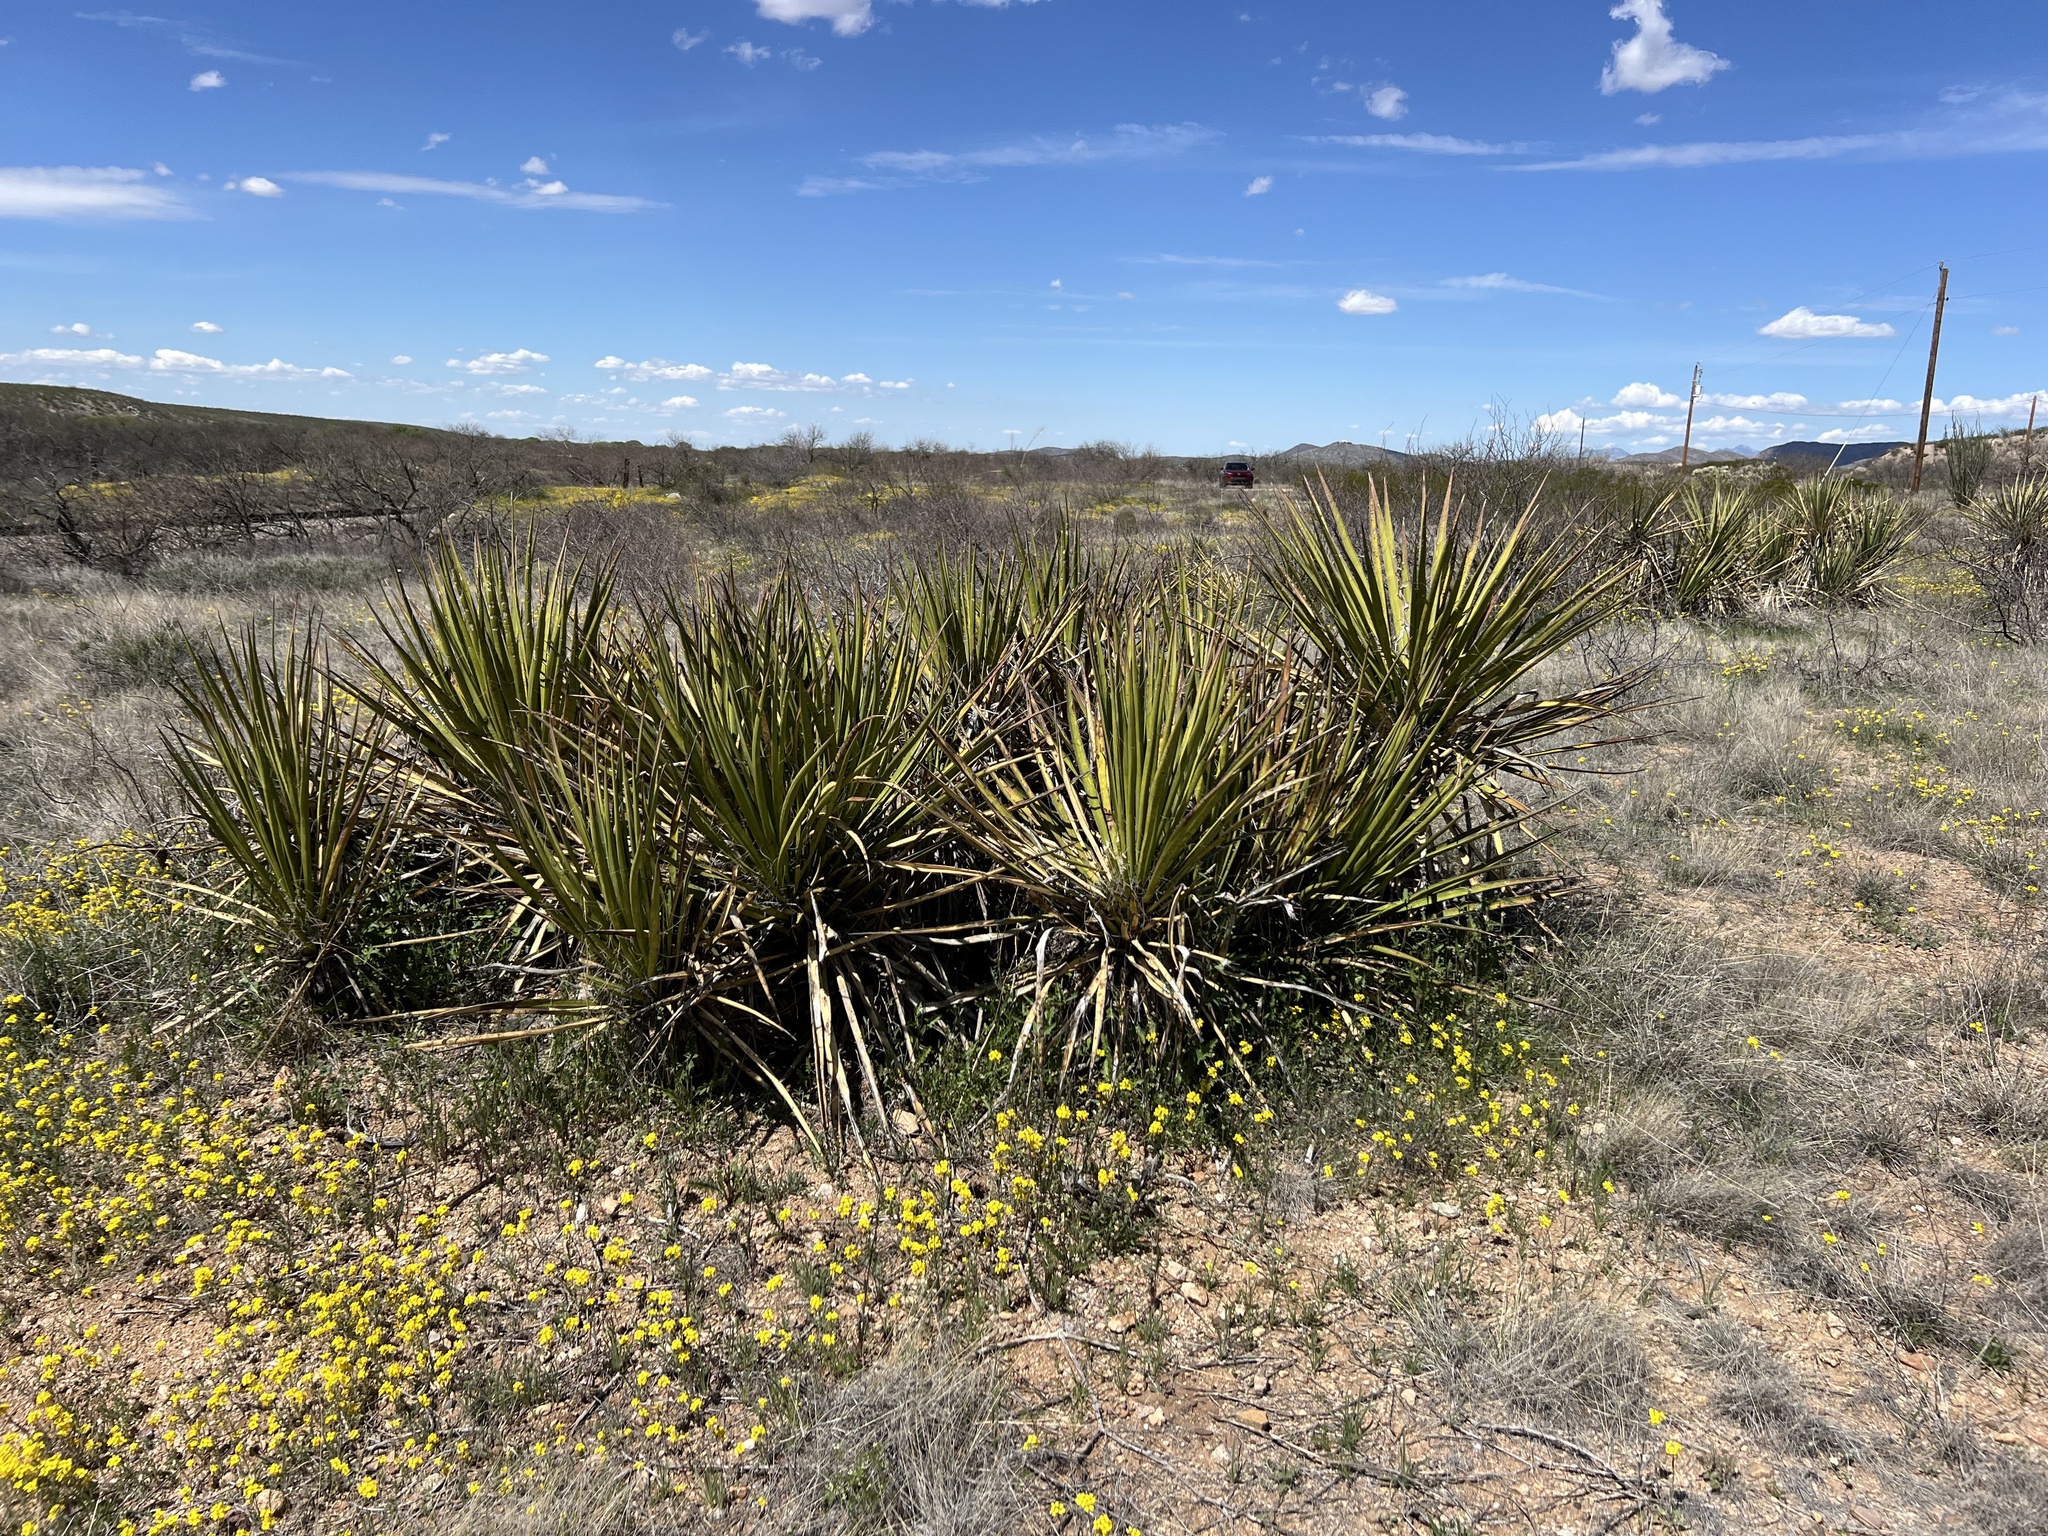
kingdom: Plantae
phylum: Tracheophyta
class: Liliopsida
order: Asparagales
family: Asparagaceae
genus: Yucca
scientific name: Yucca baccata
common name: Banana yucca
